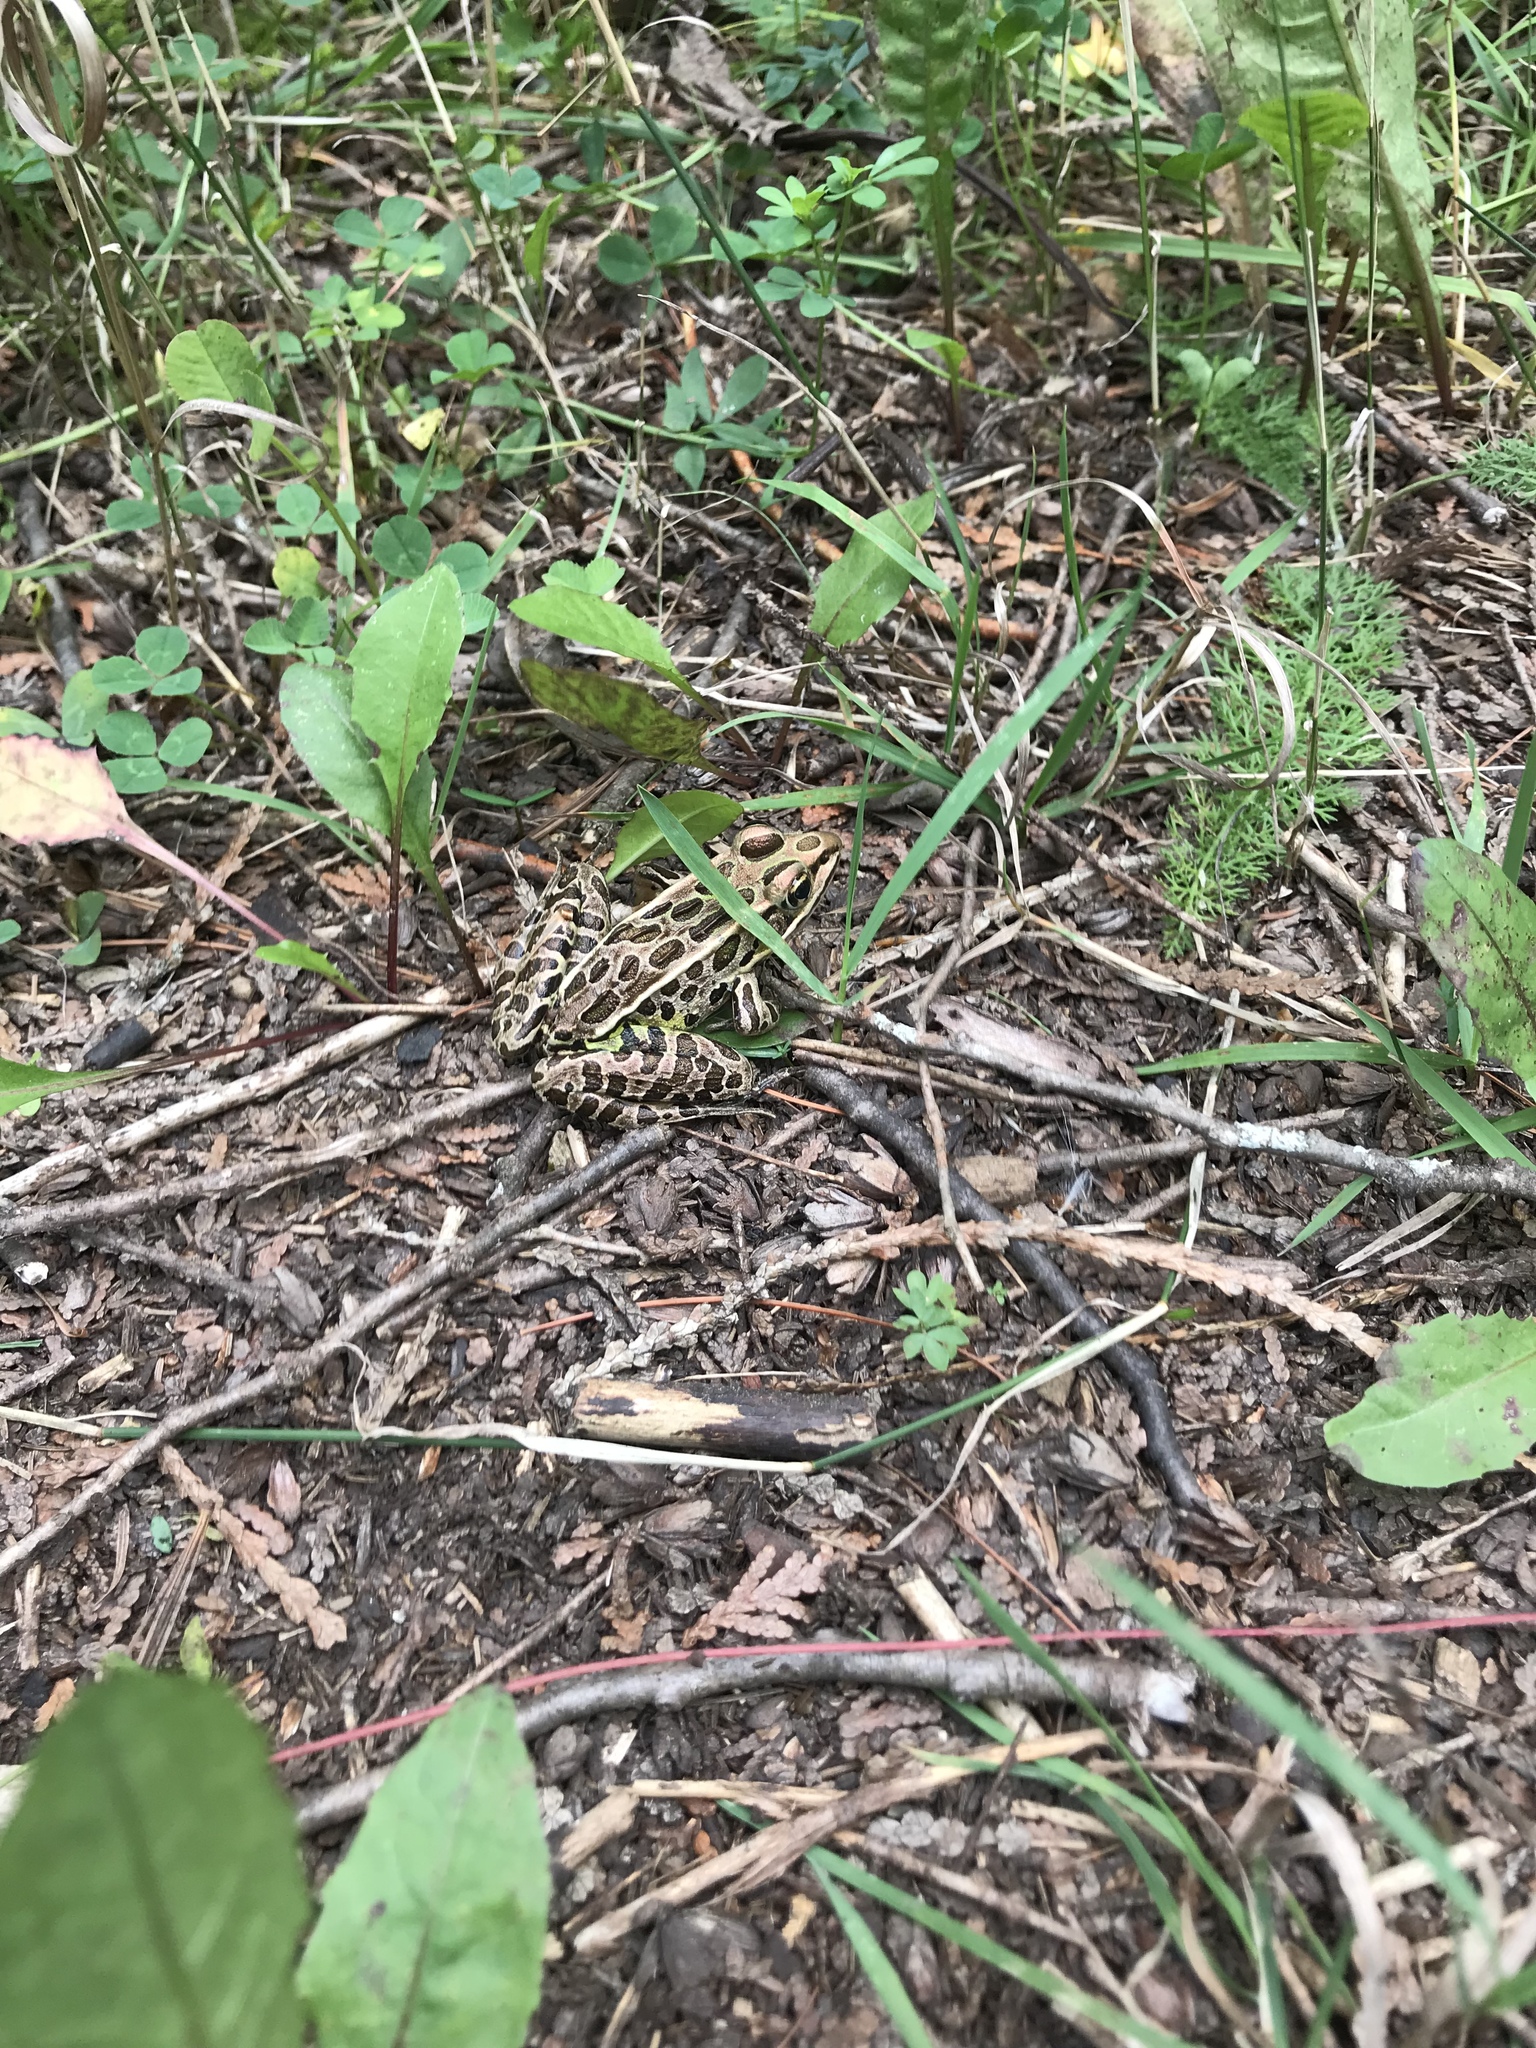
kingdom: Animalia
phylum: Chordata
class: Amphibia
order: Anura
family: Ranidae
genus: Lithobates
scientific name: Lithobates pipiens
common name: Northern leopard frog
